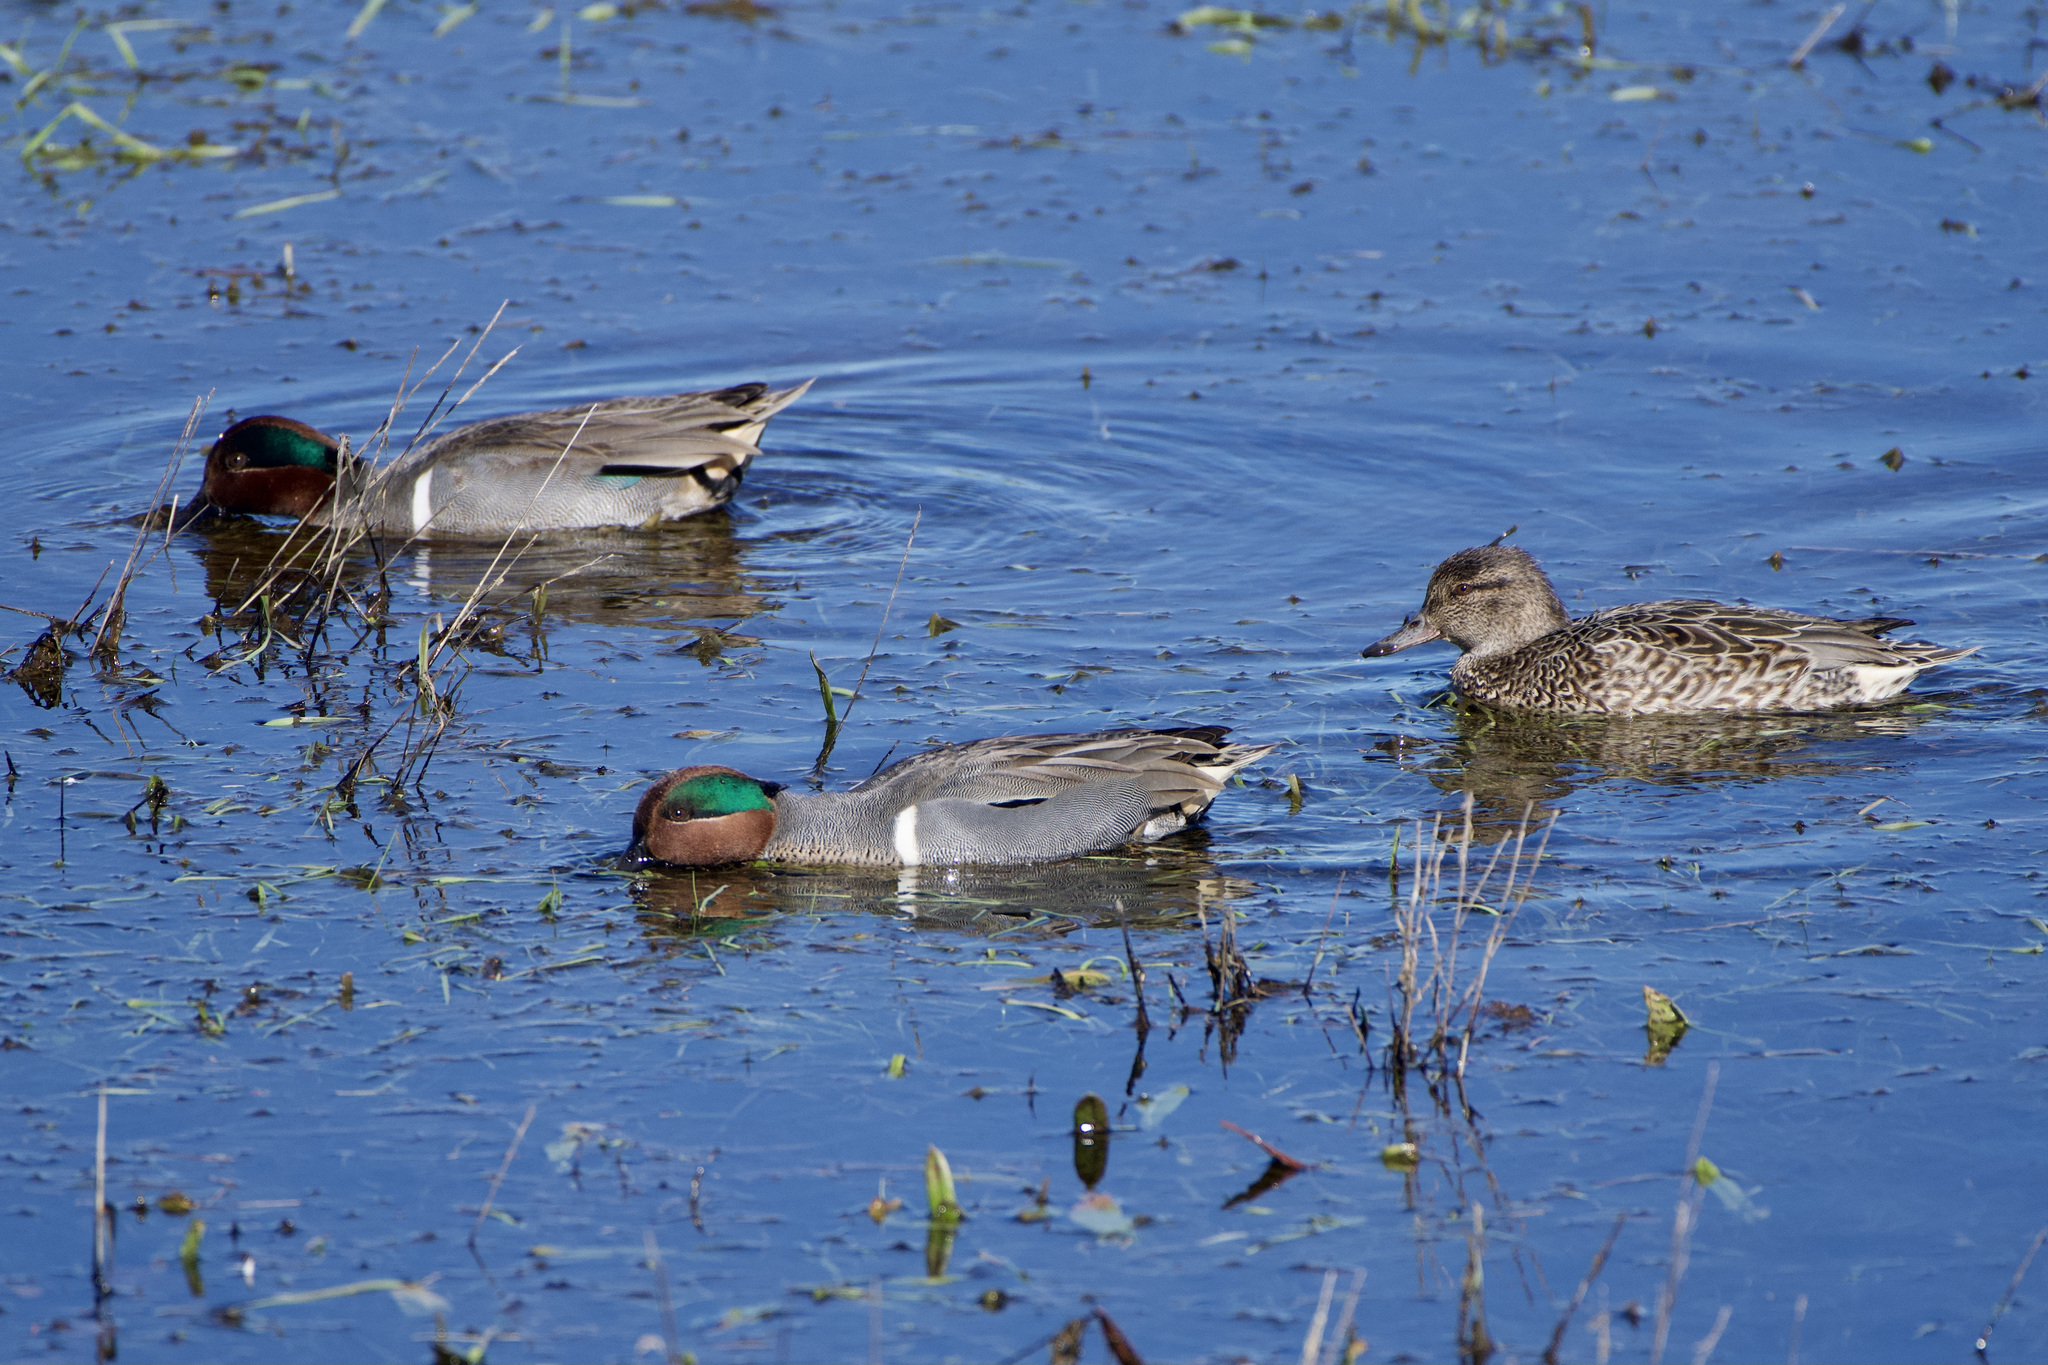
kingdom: Animalia
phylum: Chordata
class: Aves
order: Anseriformes
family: Anatidae
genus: Anas
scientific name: Anas carolinensis
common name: Green-winged teal
